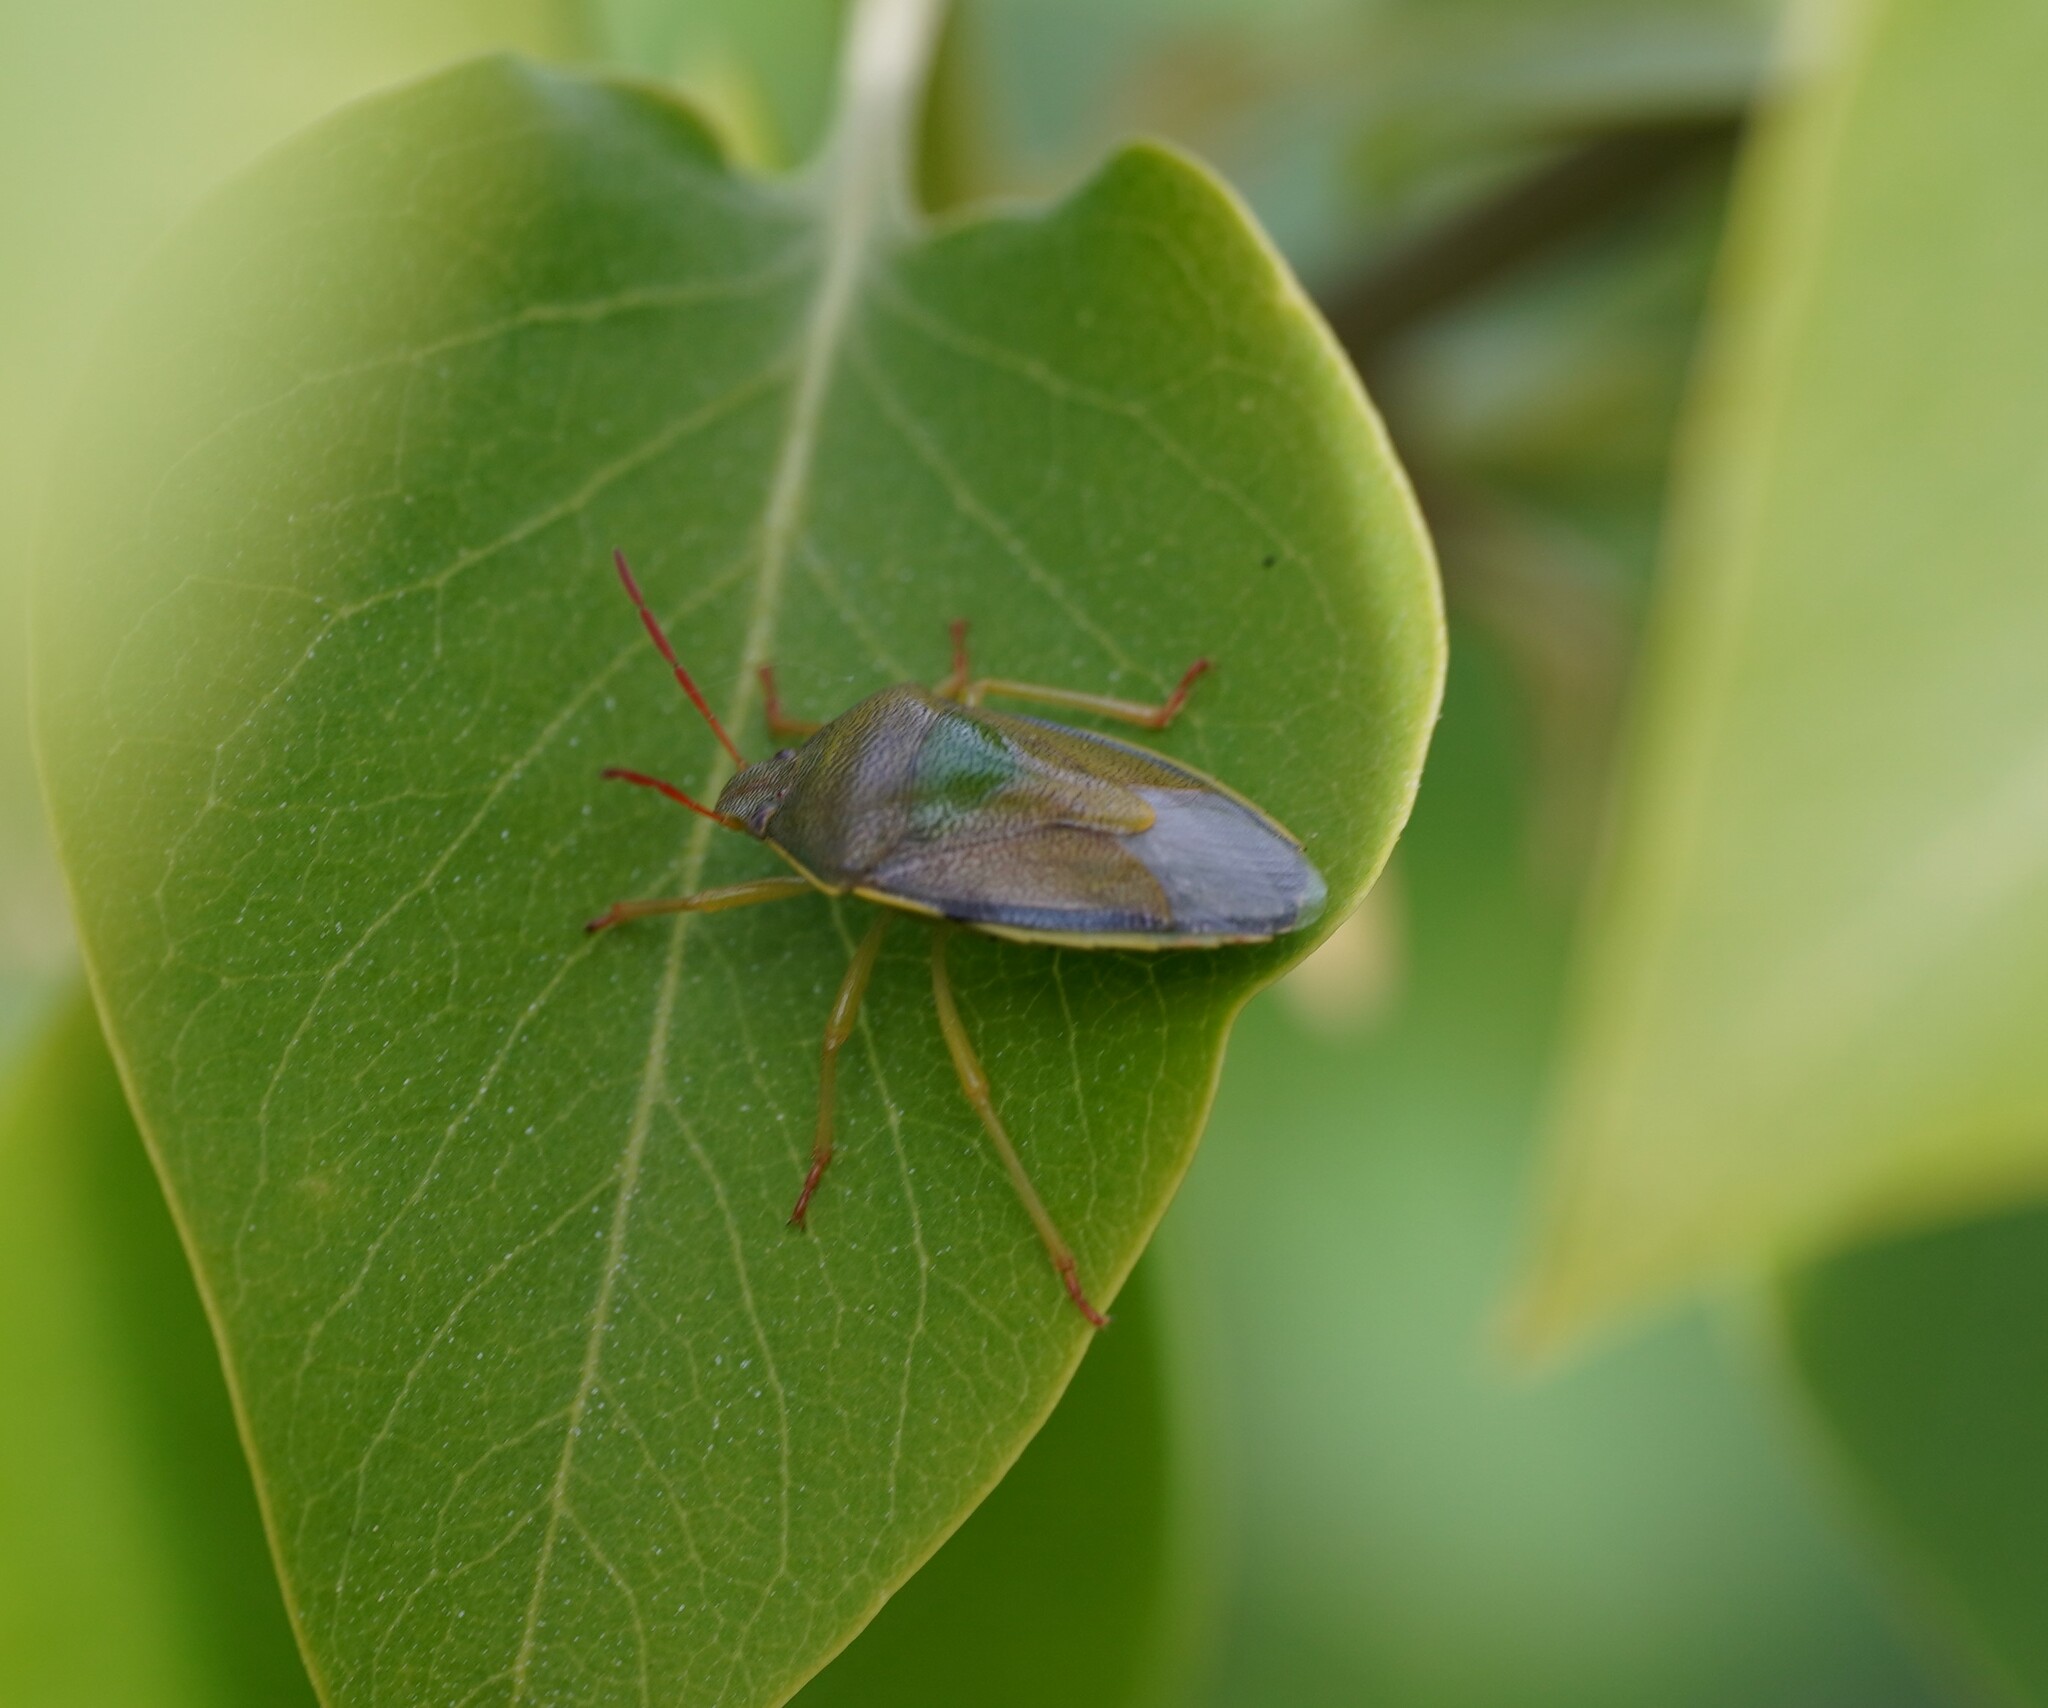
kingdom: Animalia
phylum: Arthropoda
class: Insecta
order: Hemiptera
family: Pentatomidae
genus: Piezodorus
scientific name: Piezodorus lituratus
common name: Stink bug
